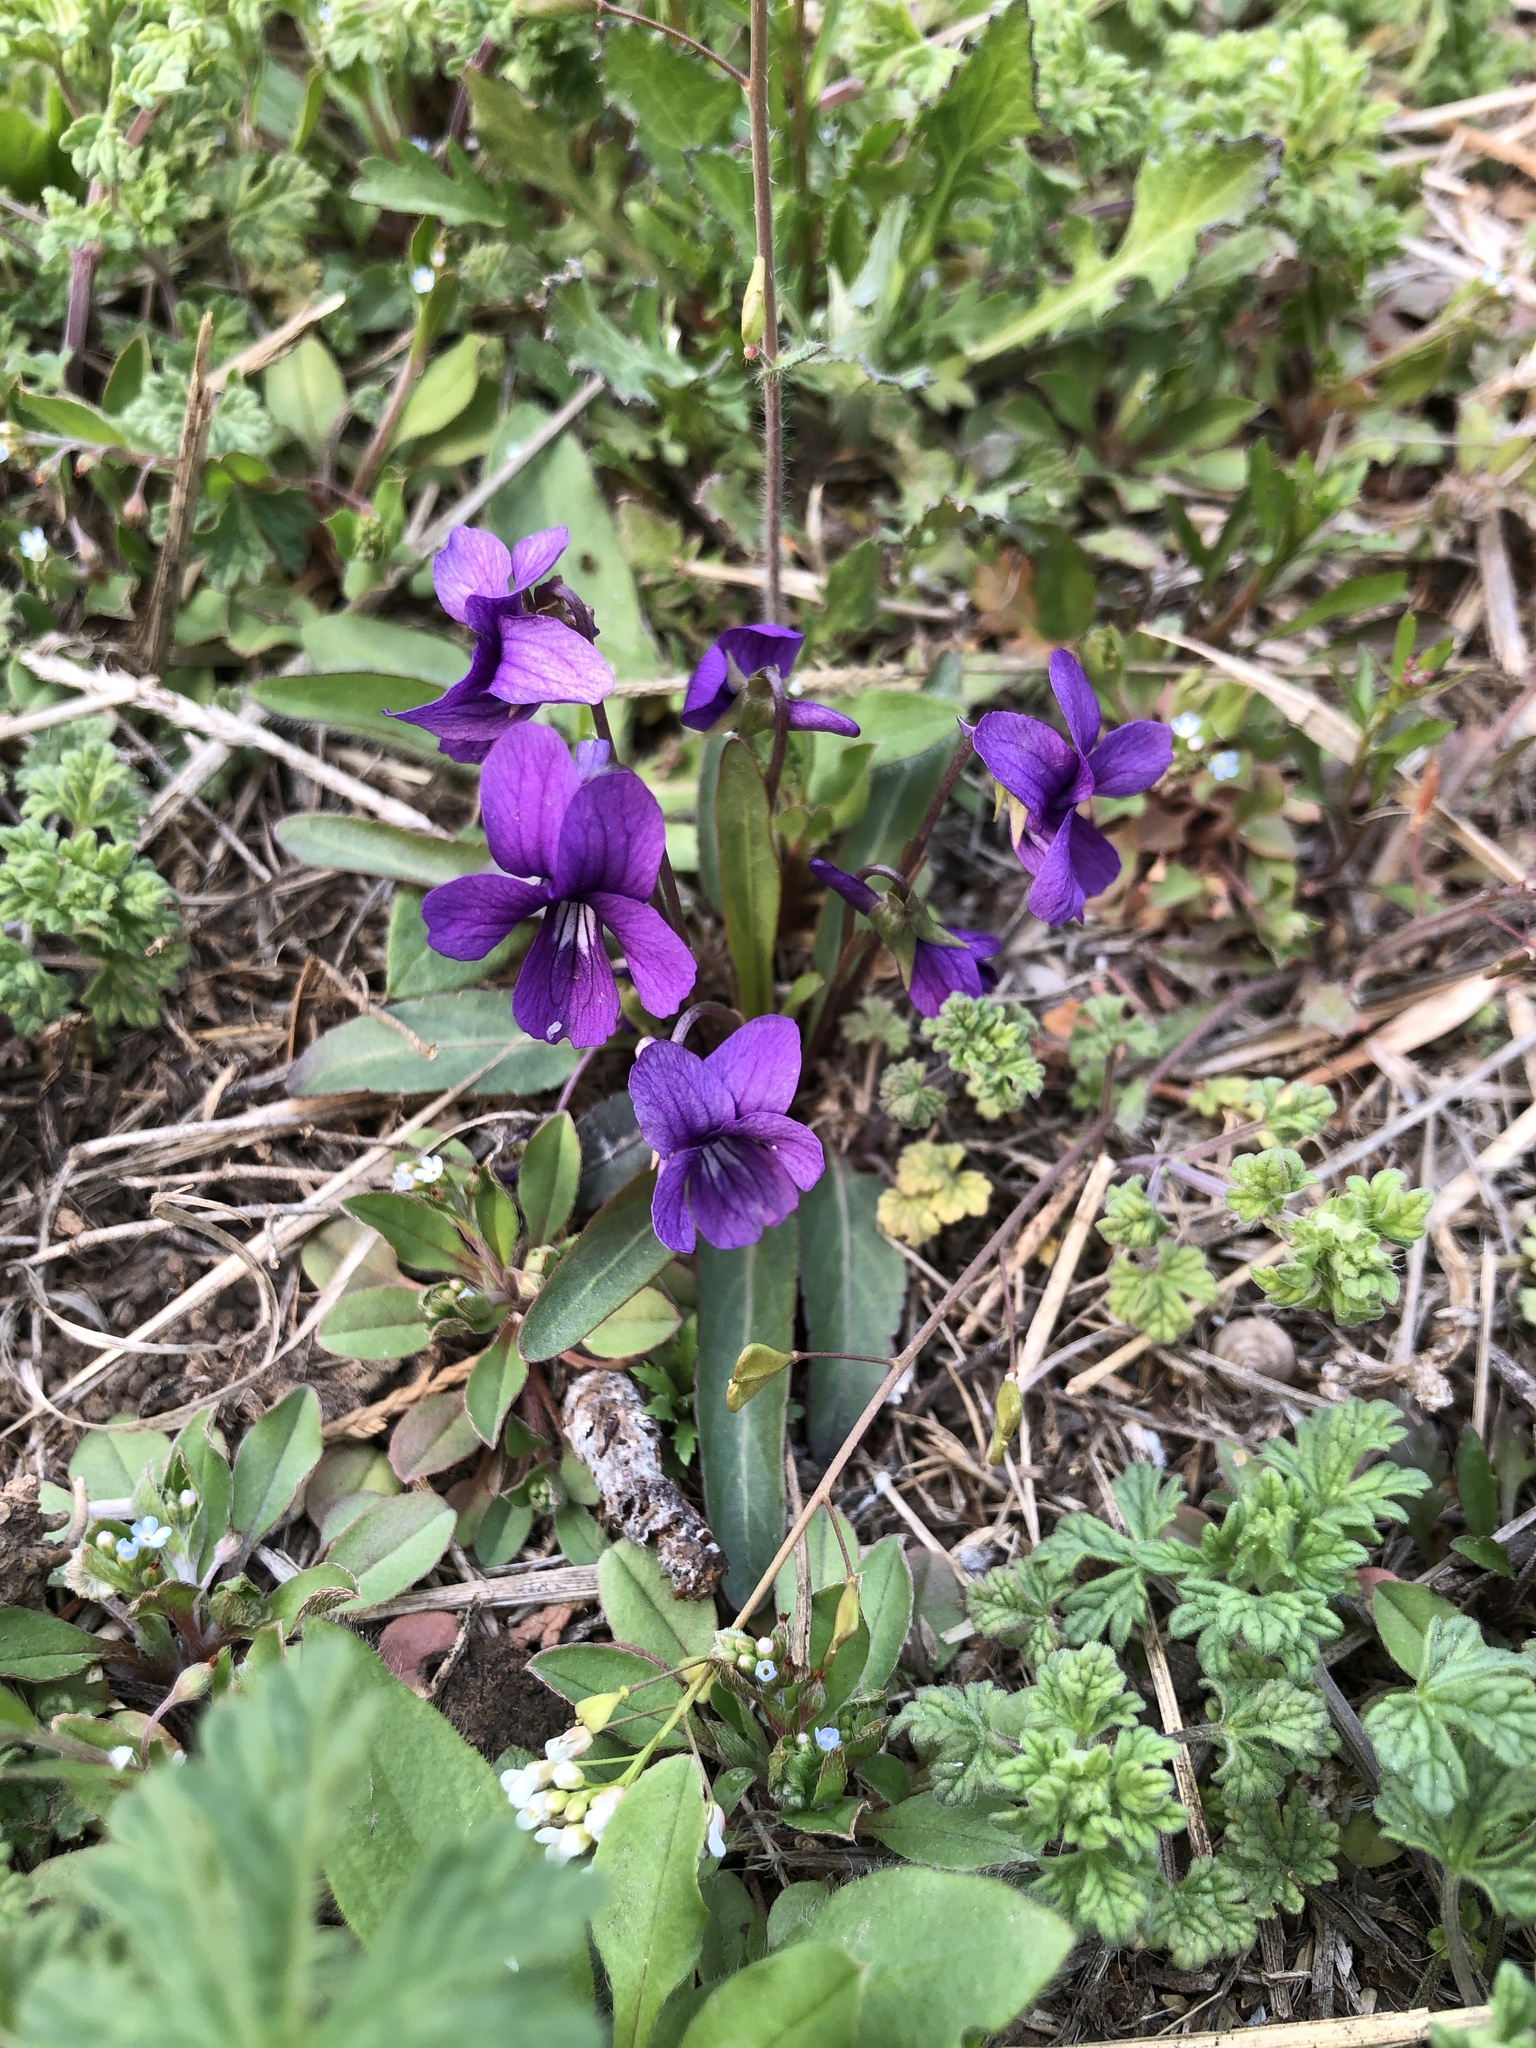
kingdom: Plantae
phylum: Tracheophyta
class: Magnoliopsida
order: Malpighiales
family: Violaceae
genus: Viola
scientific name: Viola philippica
